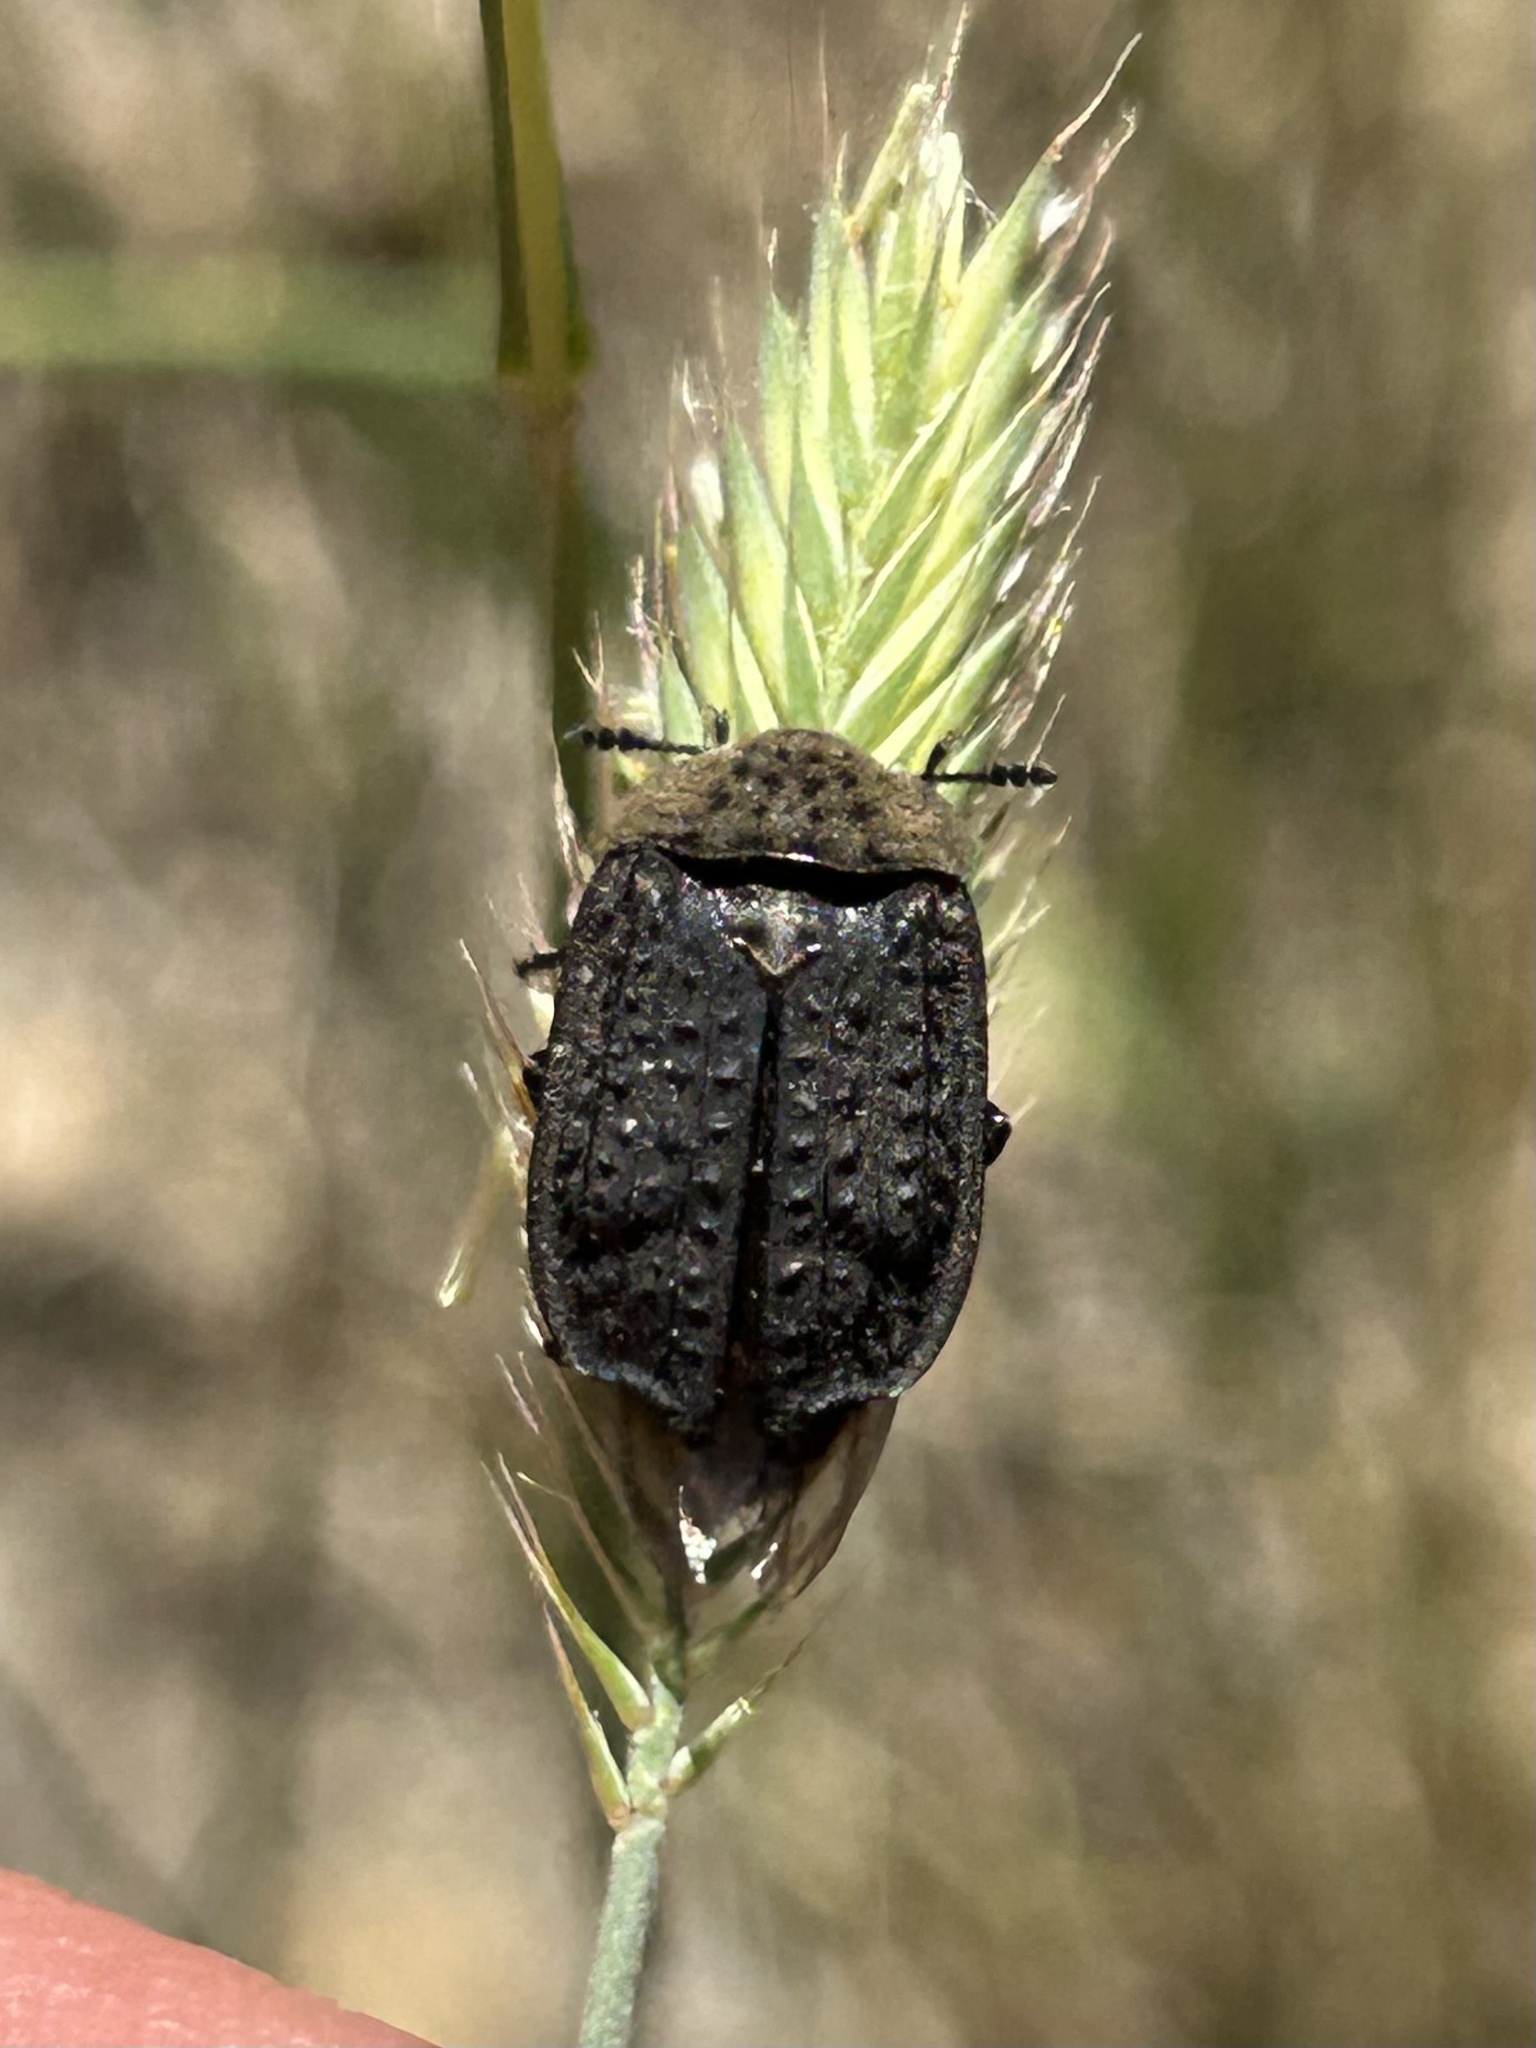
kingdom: Animalia
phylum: Arthropoda
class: Insecta
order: Coleoptera
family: Staphylinidae
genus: Thanatophilus
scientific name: Thanatophilus lapponicus
